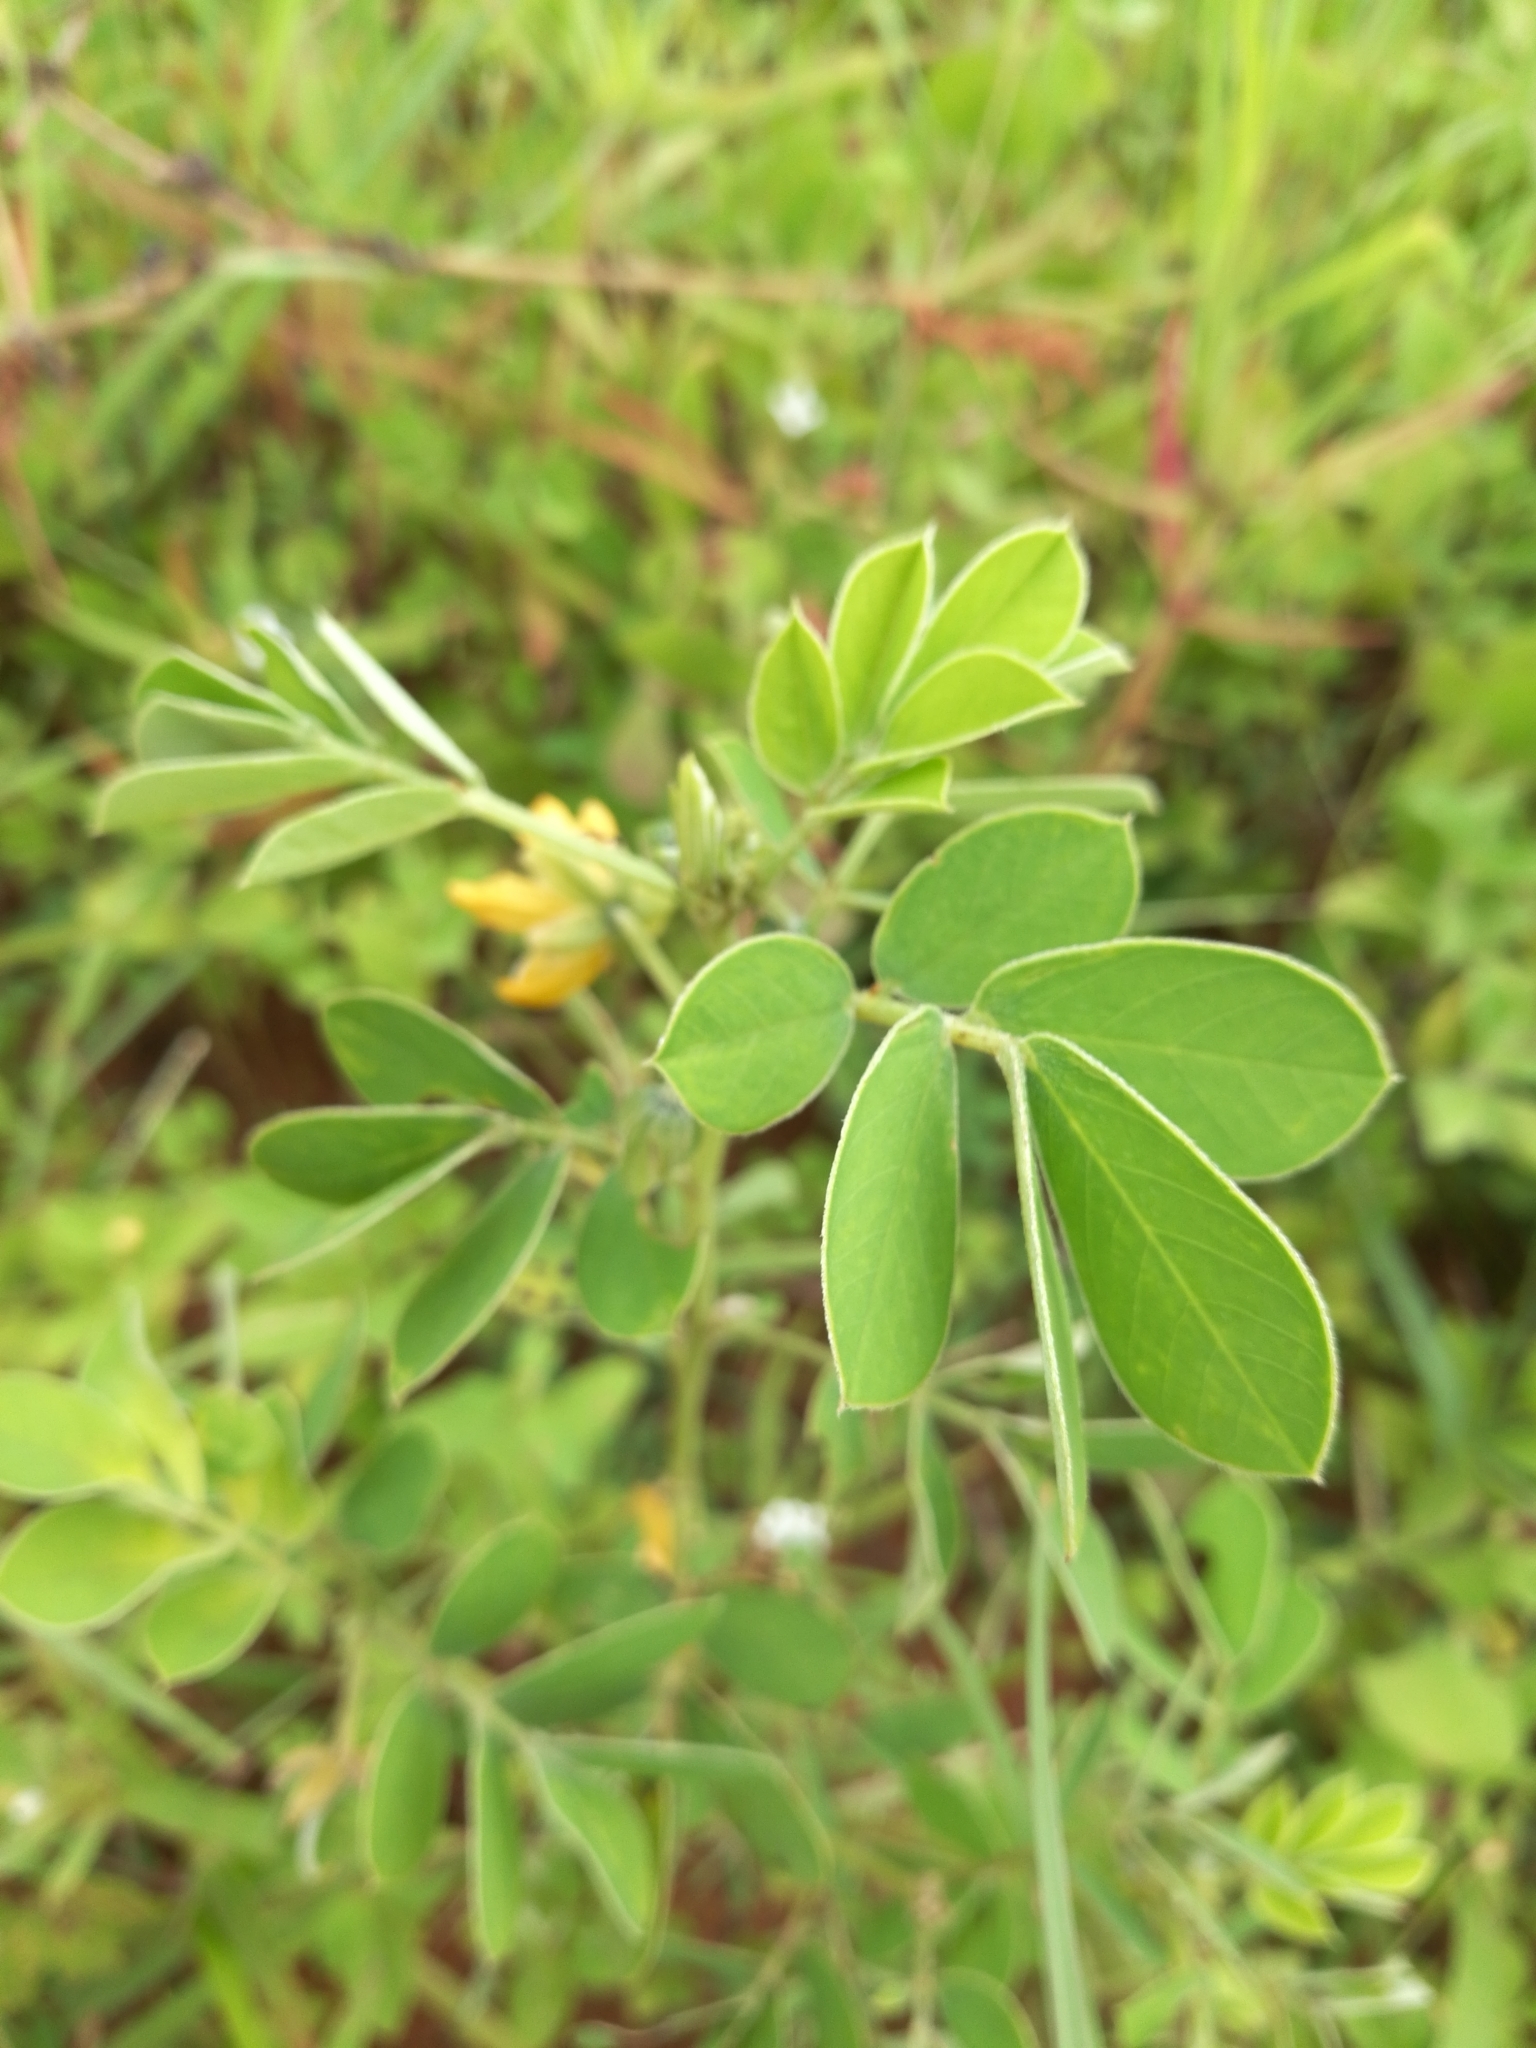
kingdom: Plantae
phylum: Tracheophyta
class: Magnoliopsida
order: Fabales
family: Fabaceae
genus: Senna
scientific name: Senna obtusifolia
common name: Java-bean
